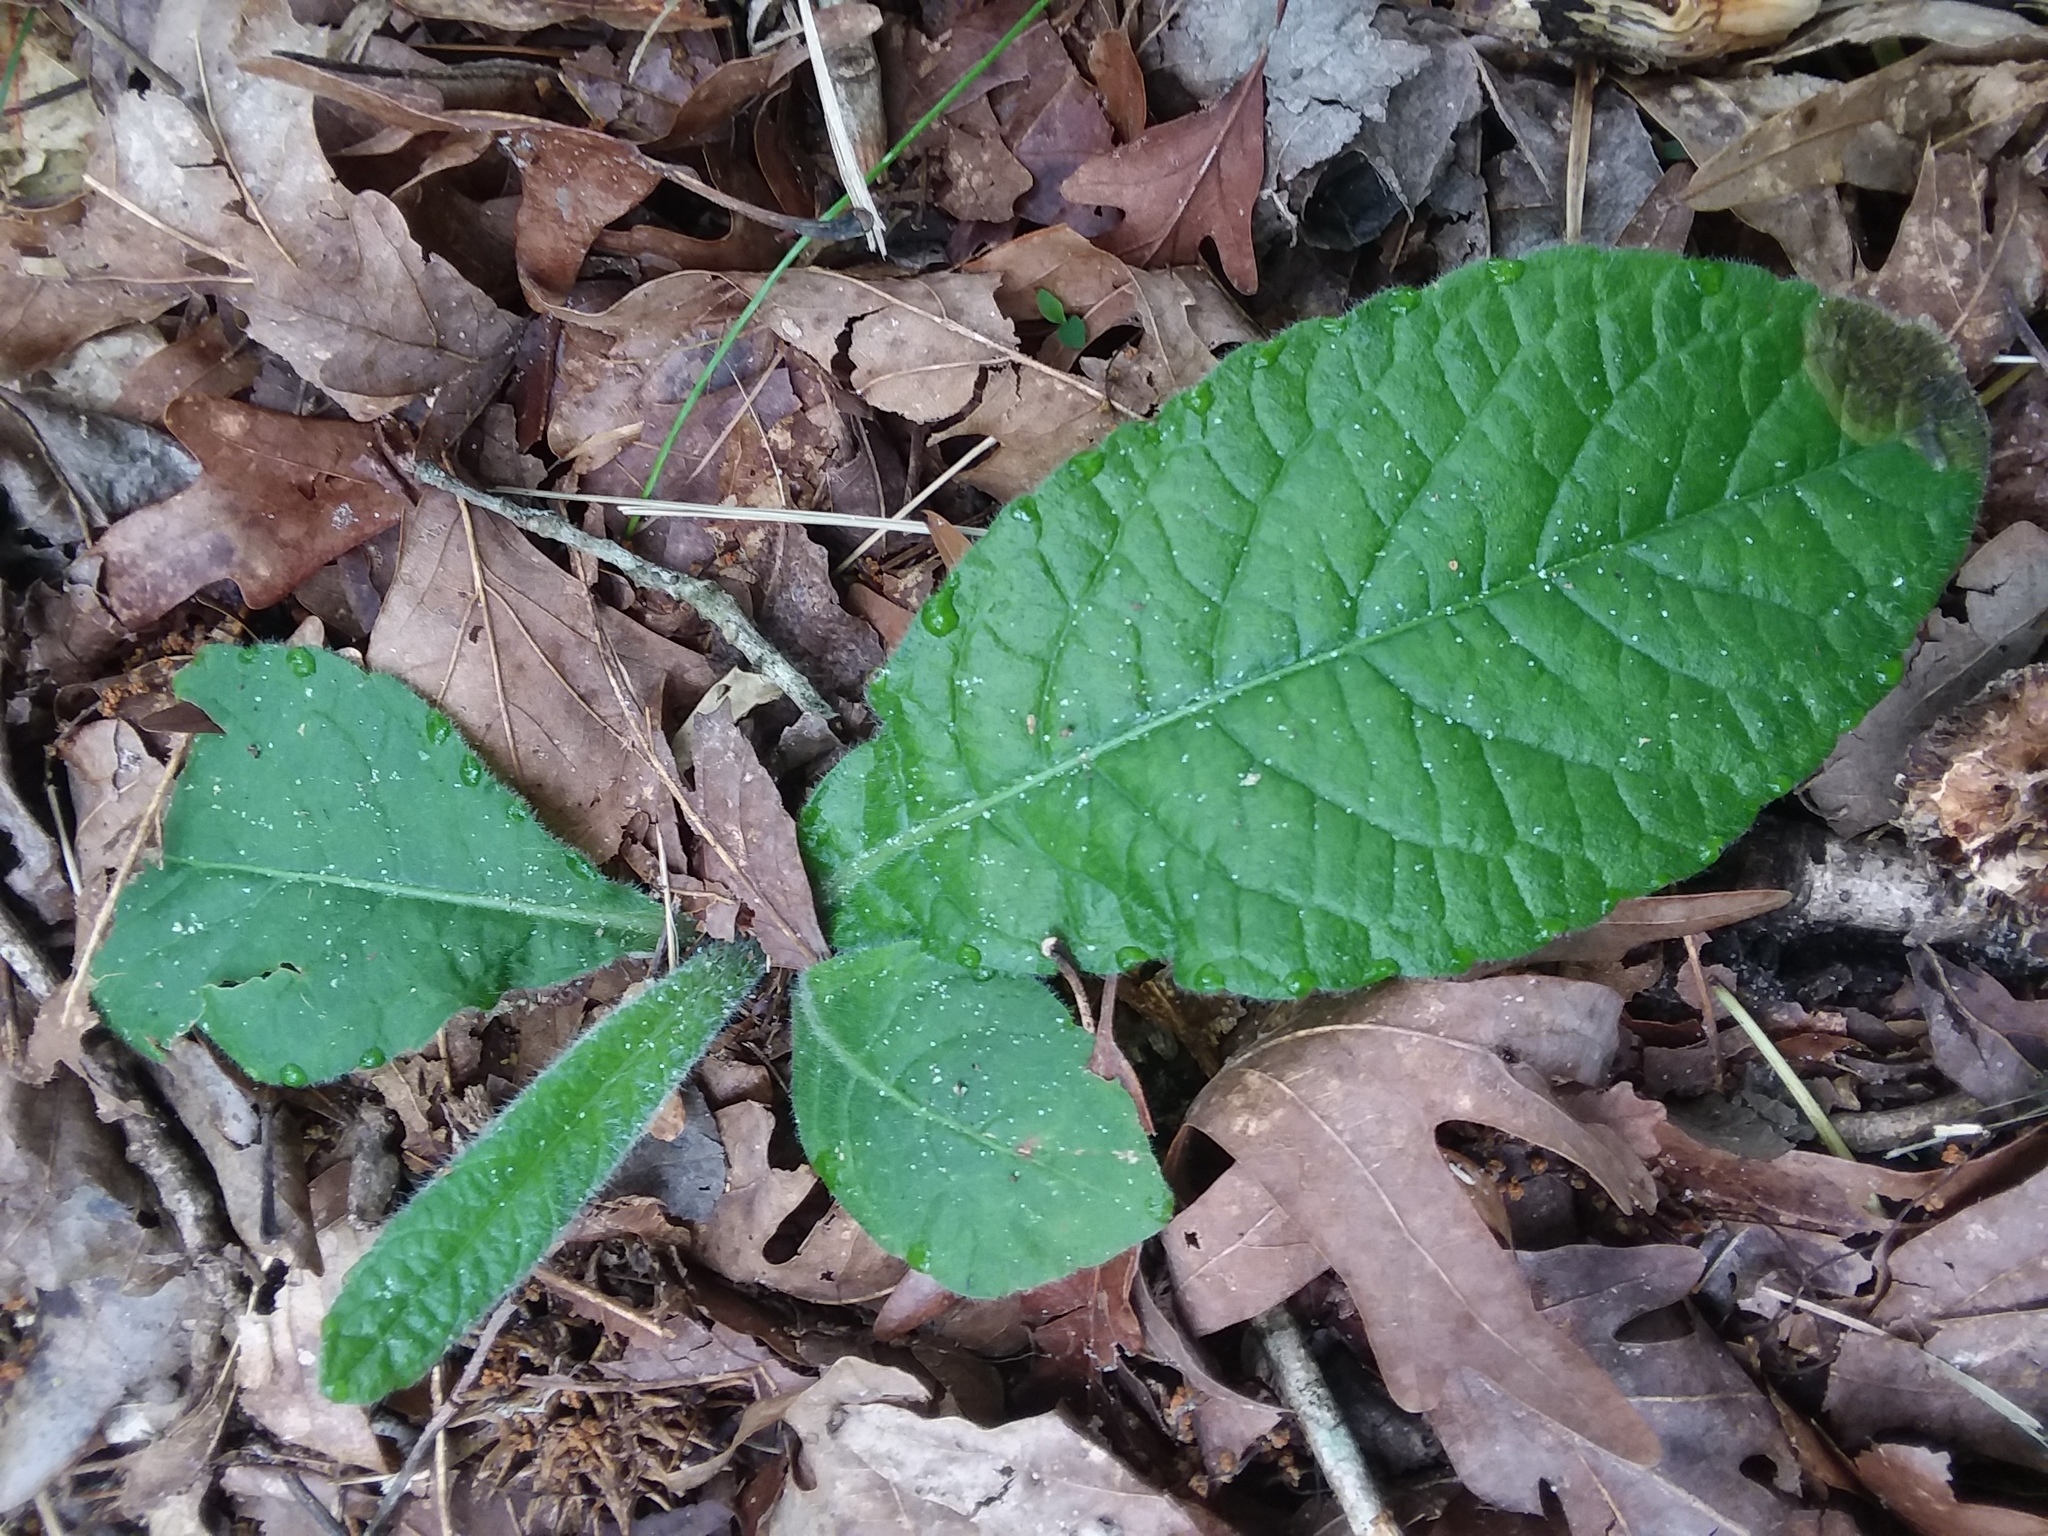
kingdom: Plantae
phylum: Tracheophyta
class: Magnoliopsida
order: Asterales
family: Asteraceae
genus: Elephantopus
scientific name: Elephantopus tomentosus
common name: Tobacco-weed
